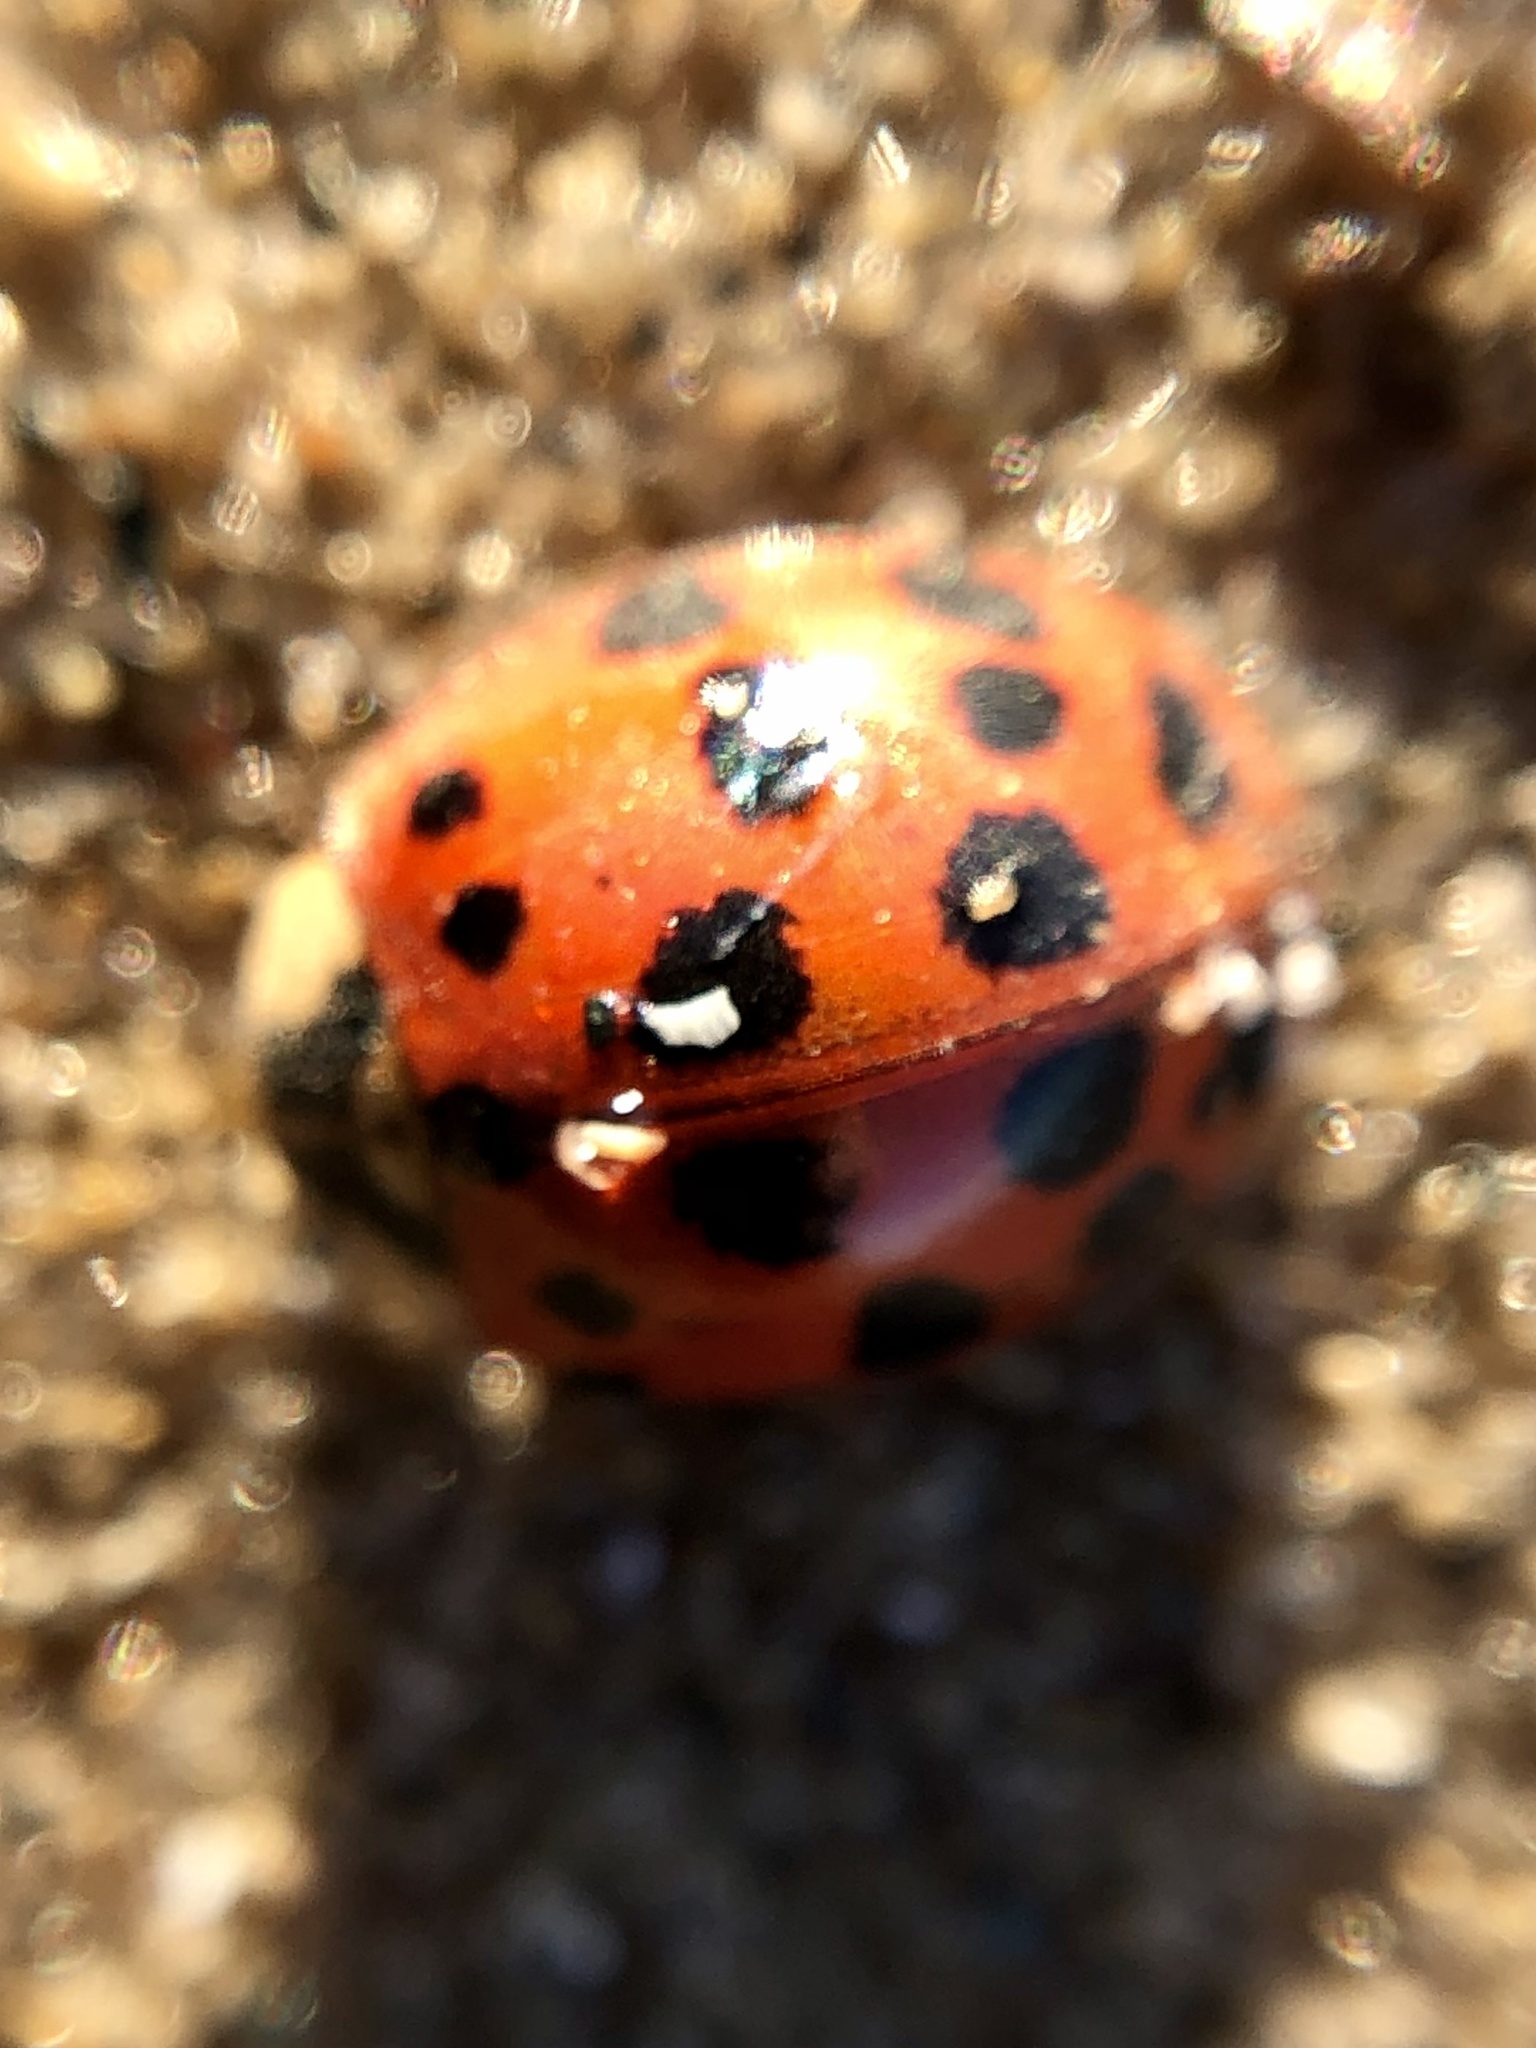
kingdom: Animalia
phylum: Arthropoda
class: Insecta
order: Coleoptera
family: Coccinellidae
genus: Harmonia
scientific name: Harmonia axyridis
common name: Harlequin ladybird
